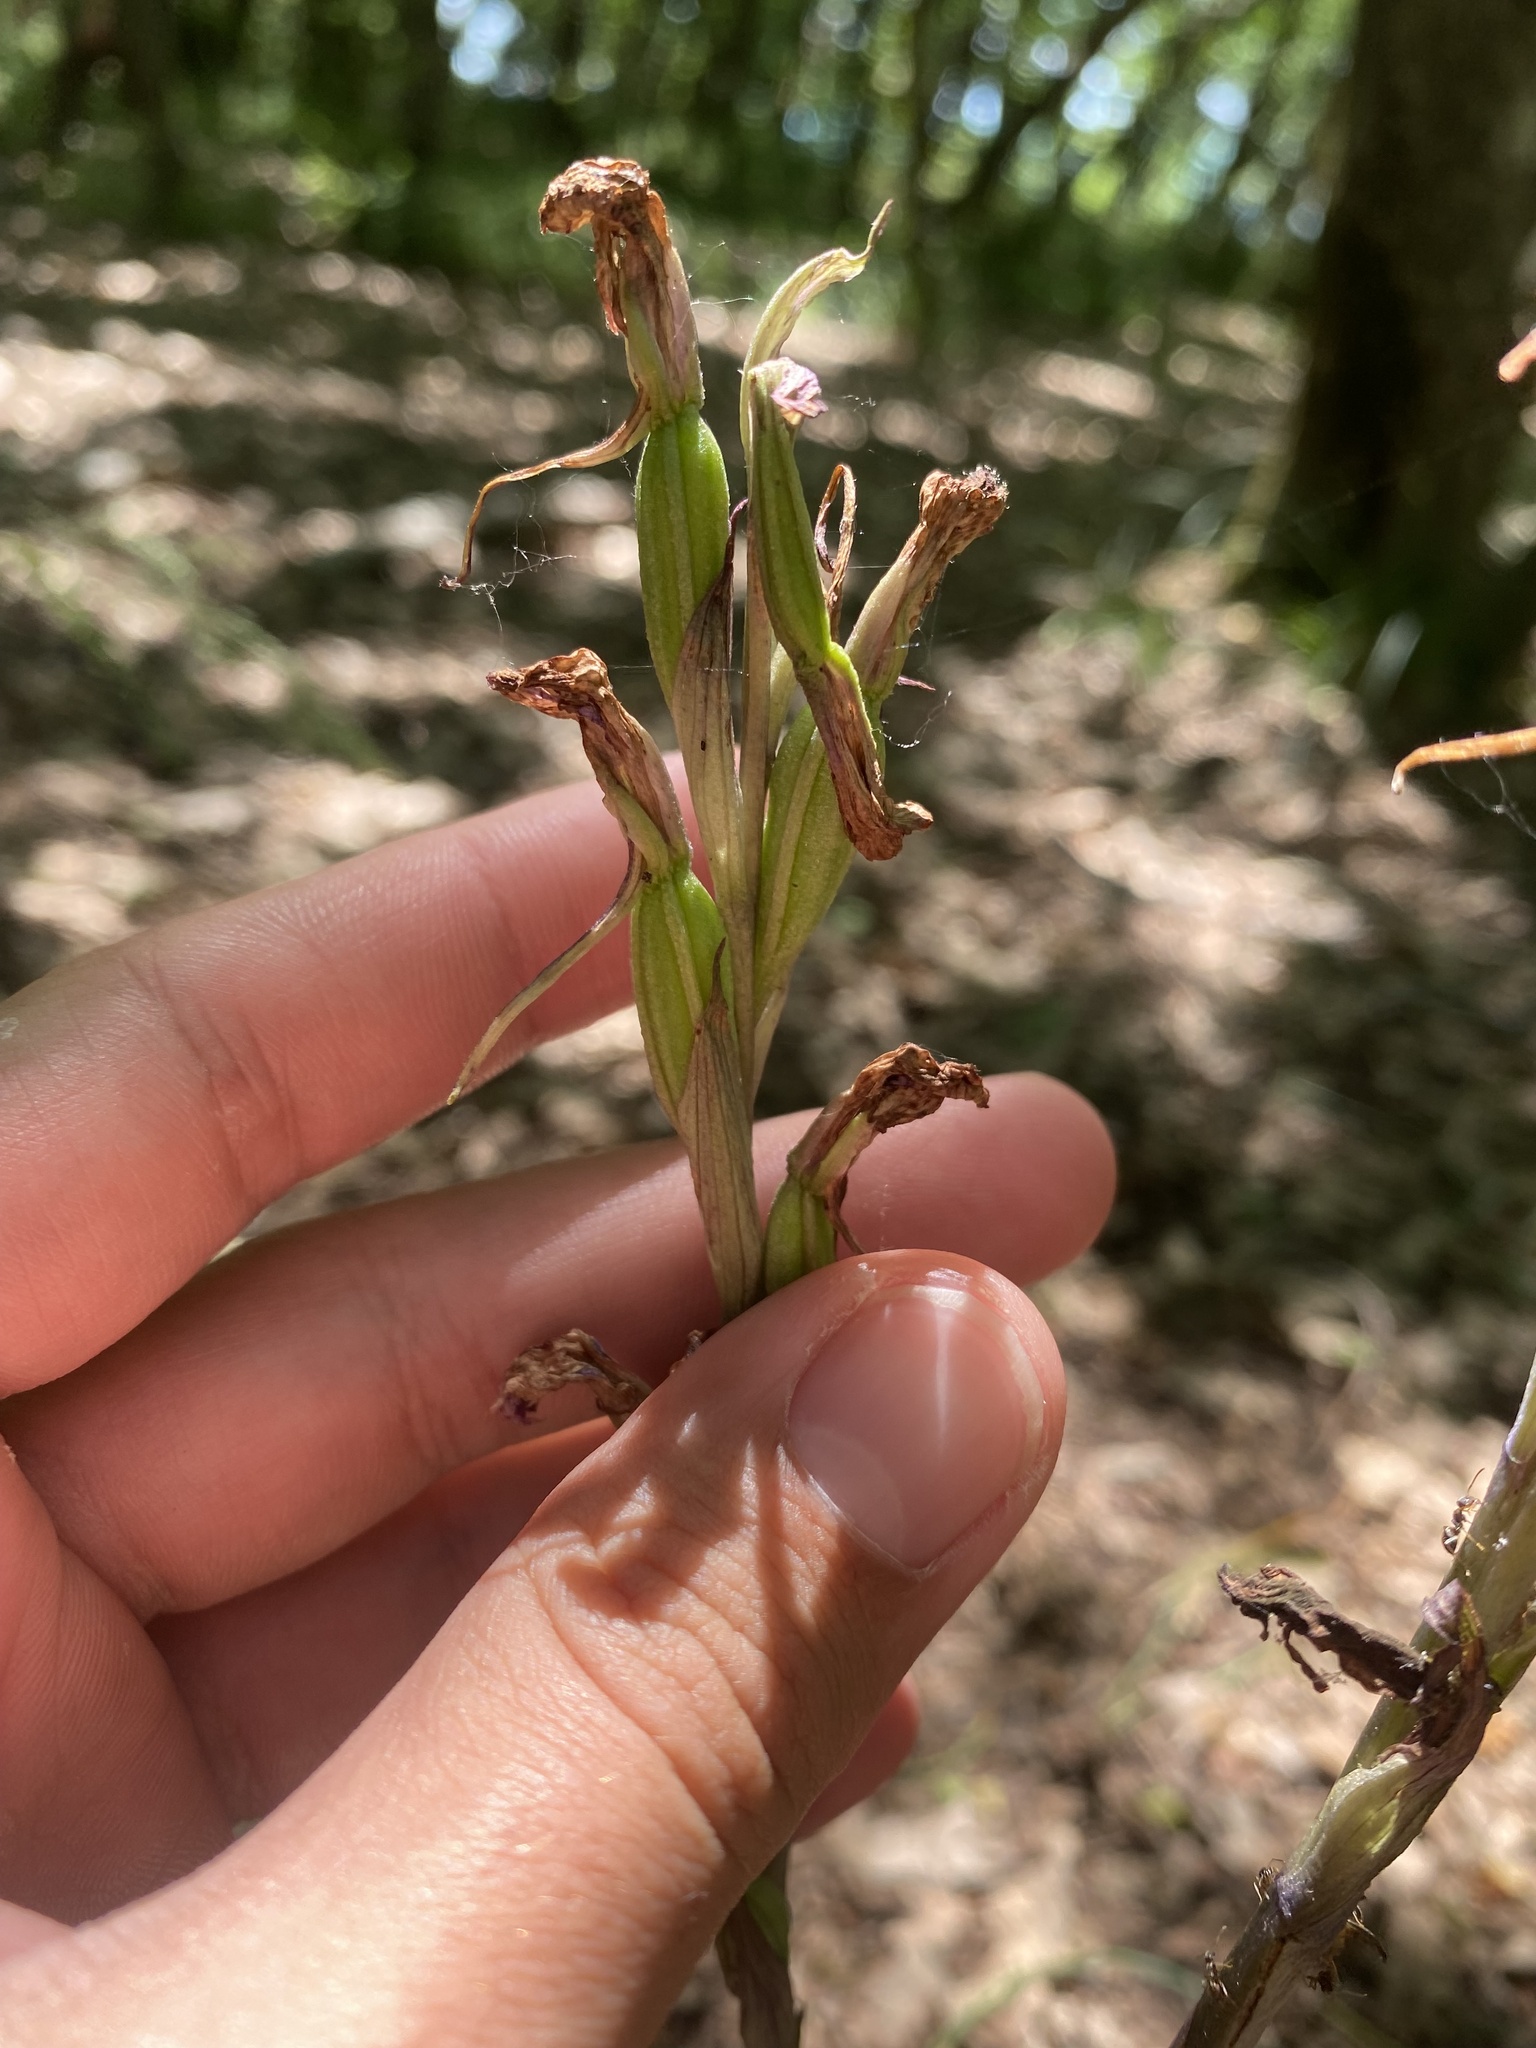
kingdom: Plantae
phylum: Tracheophyta
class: Liliopsida
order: Asparagales
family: Orchidaceae
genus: Limodorum
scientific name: Limodorum abortivum
